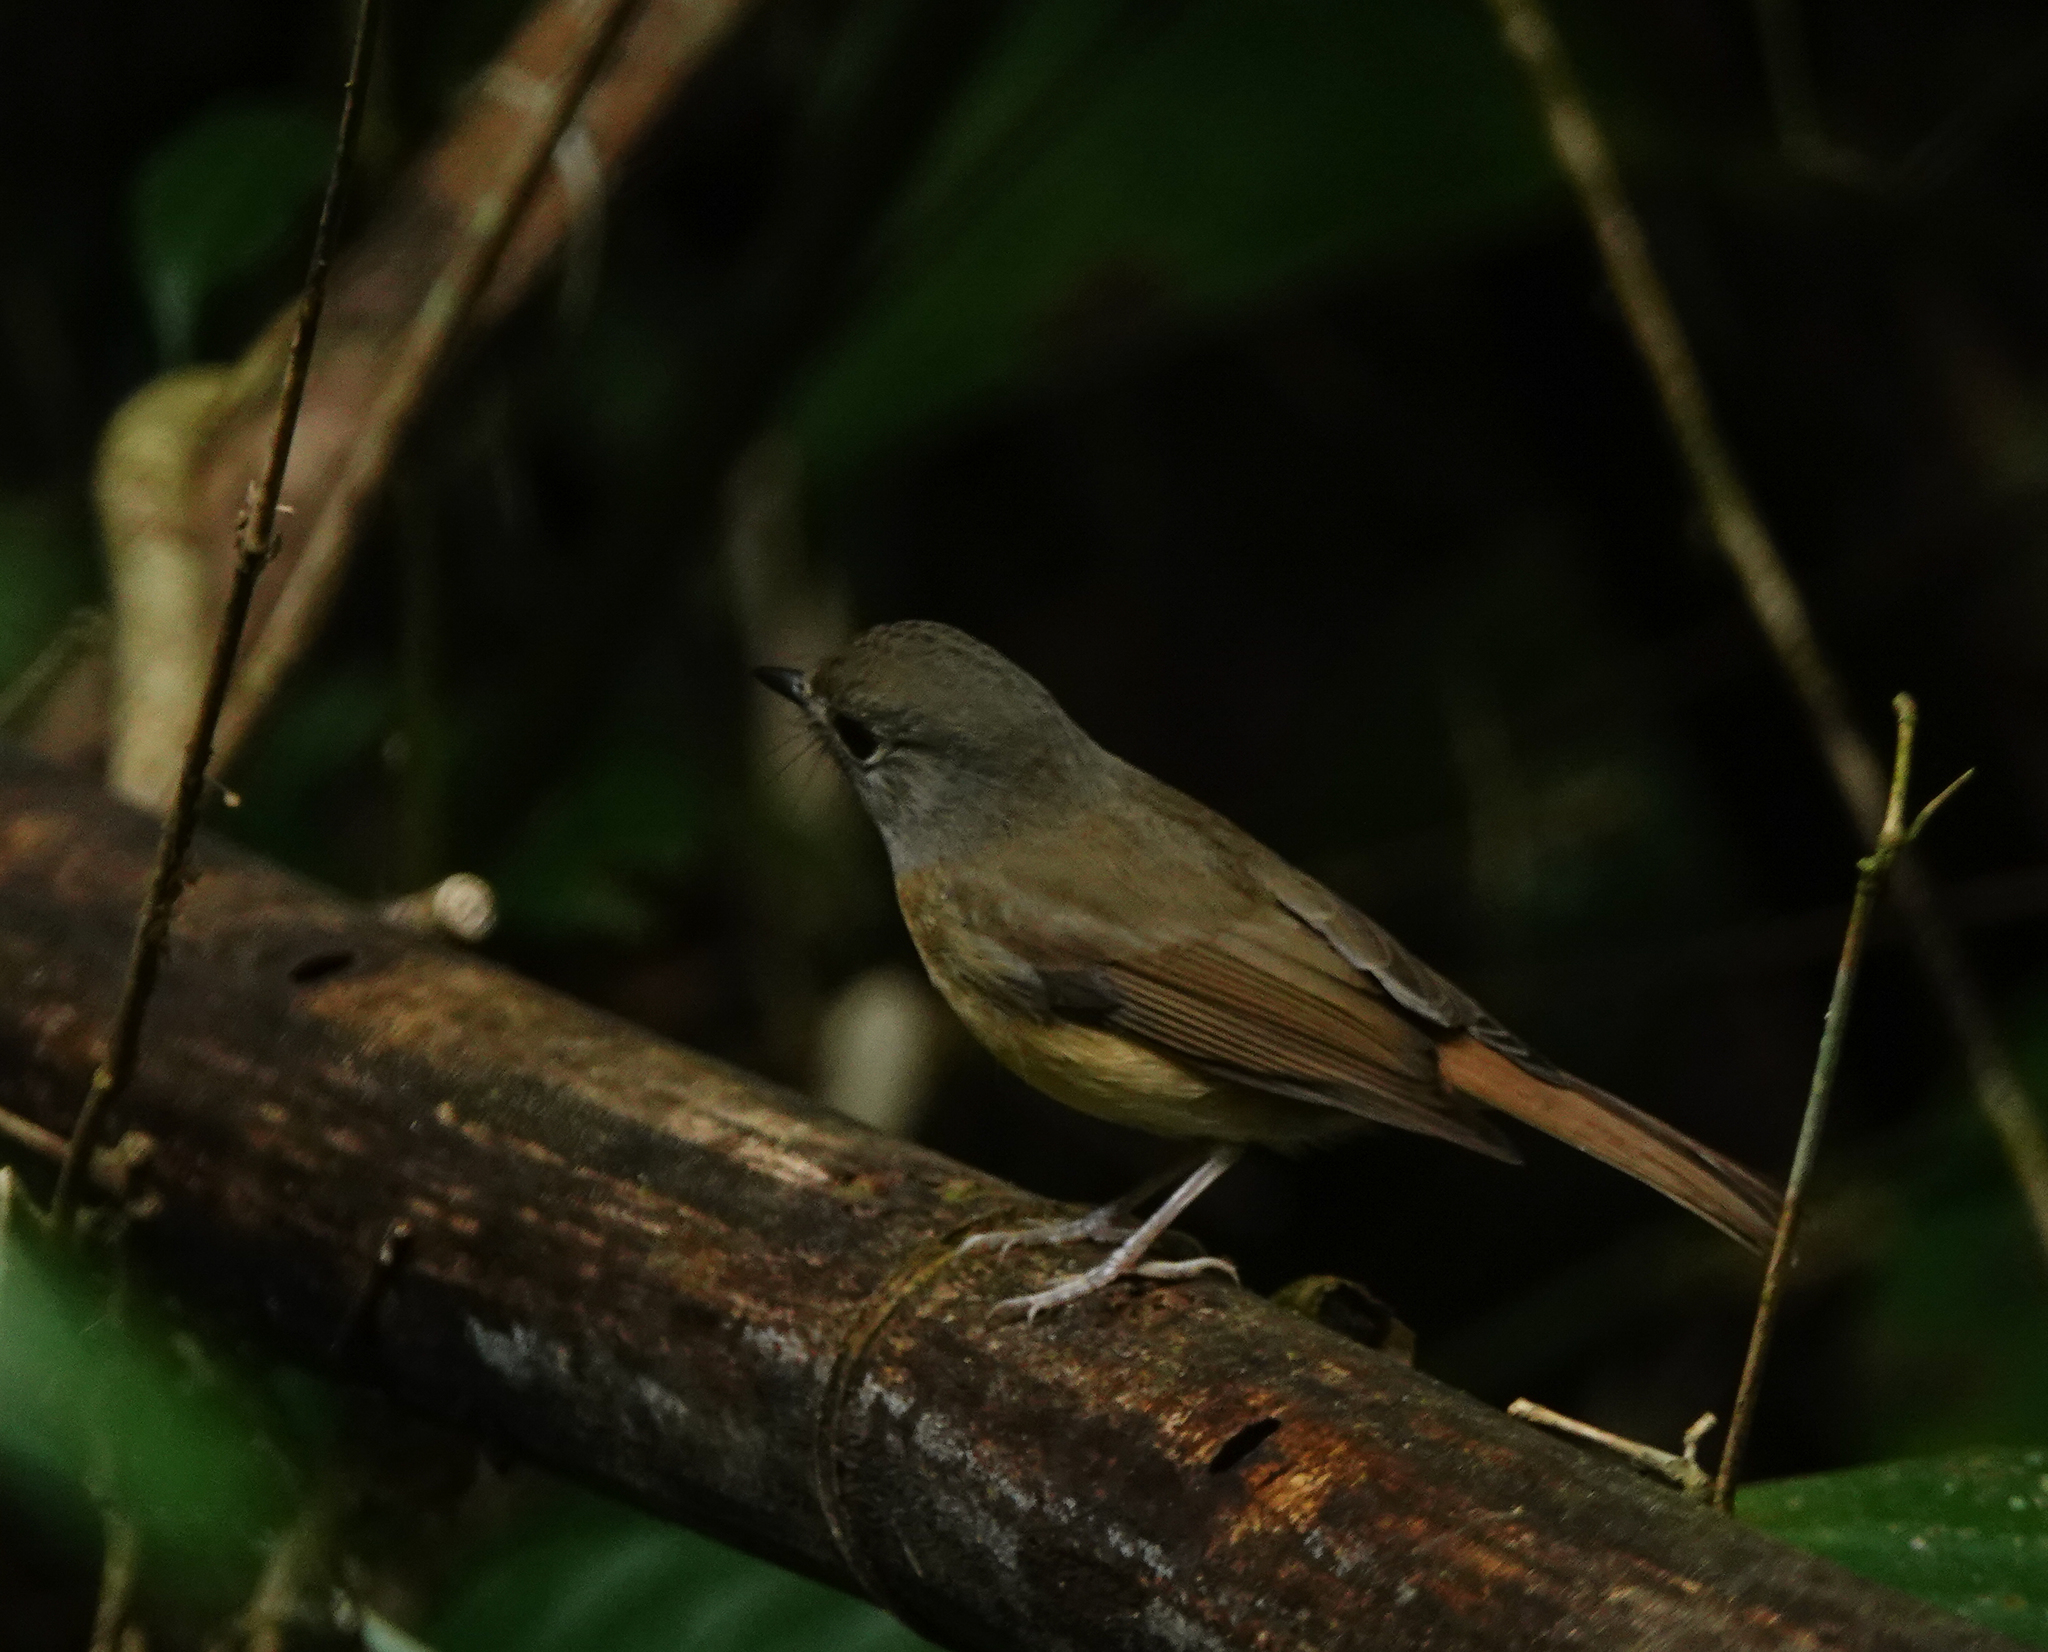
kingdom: Animalia
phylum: Chordata
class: Aves
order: Passeriformes
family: Muscicapidae
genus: Cyornis
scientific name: Cyornis poliogenys
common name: Pale-chinned blue flycatcher
